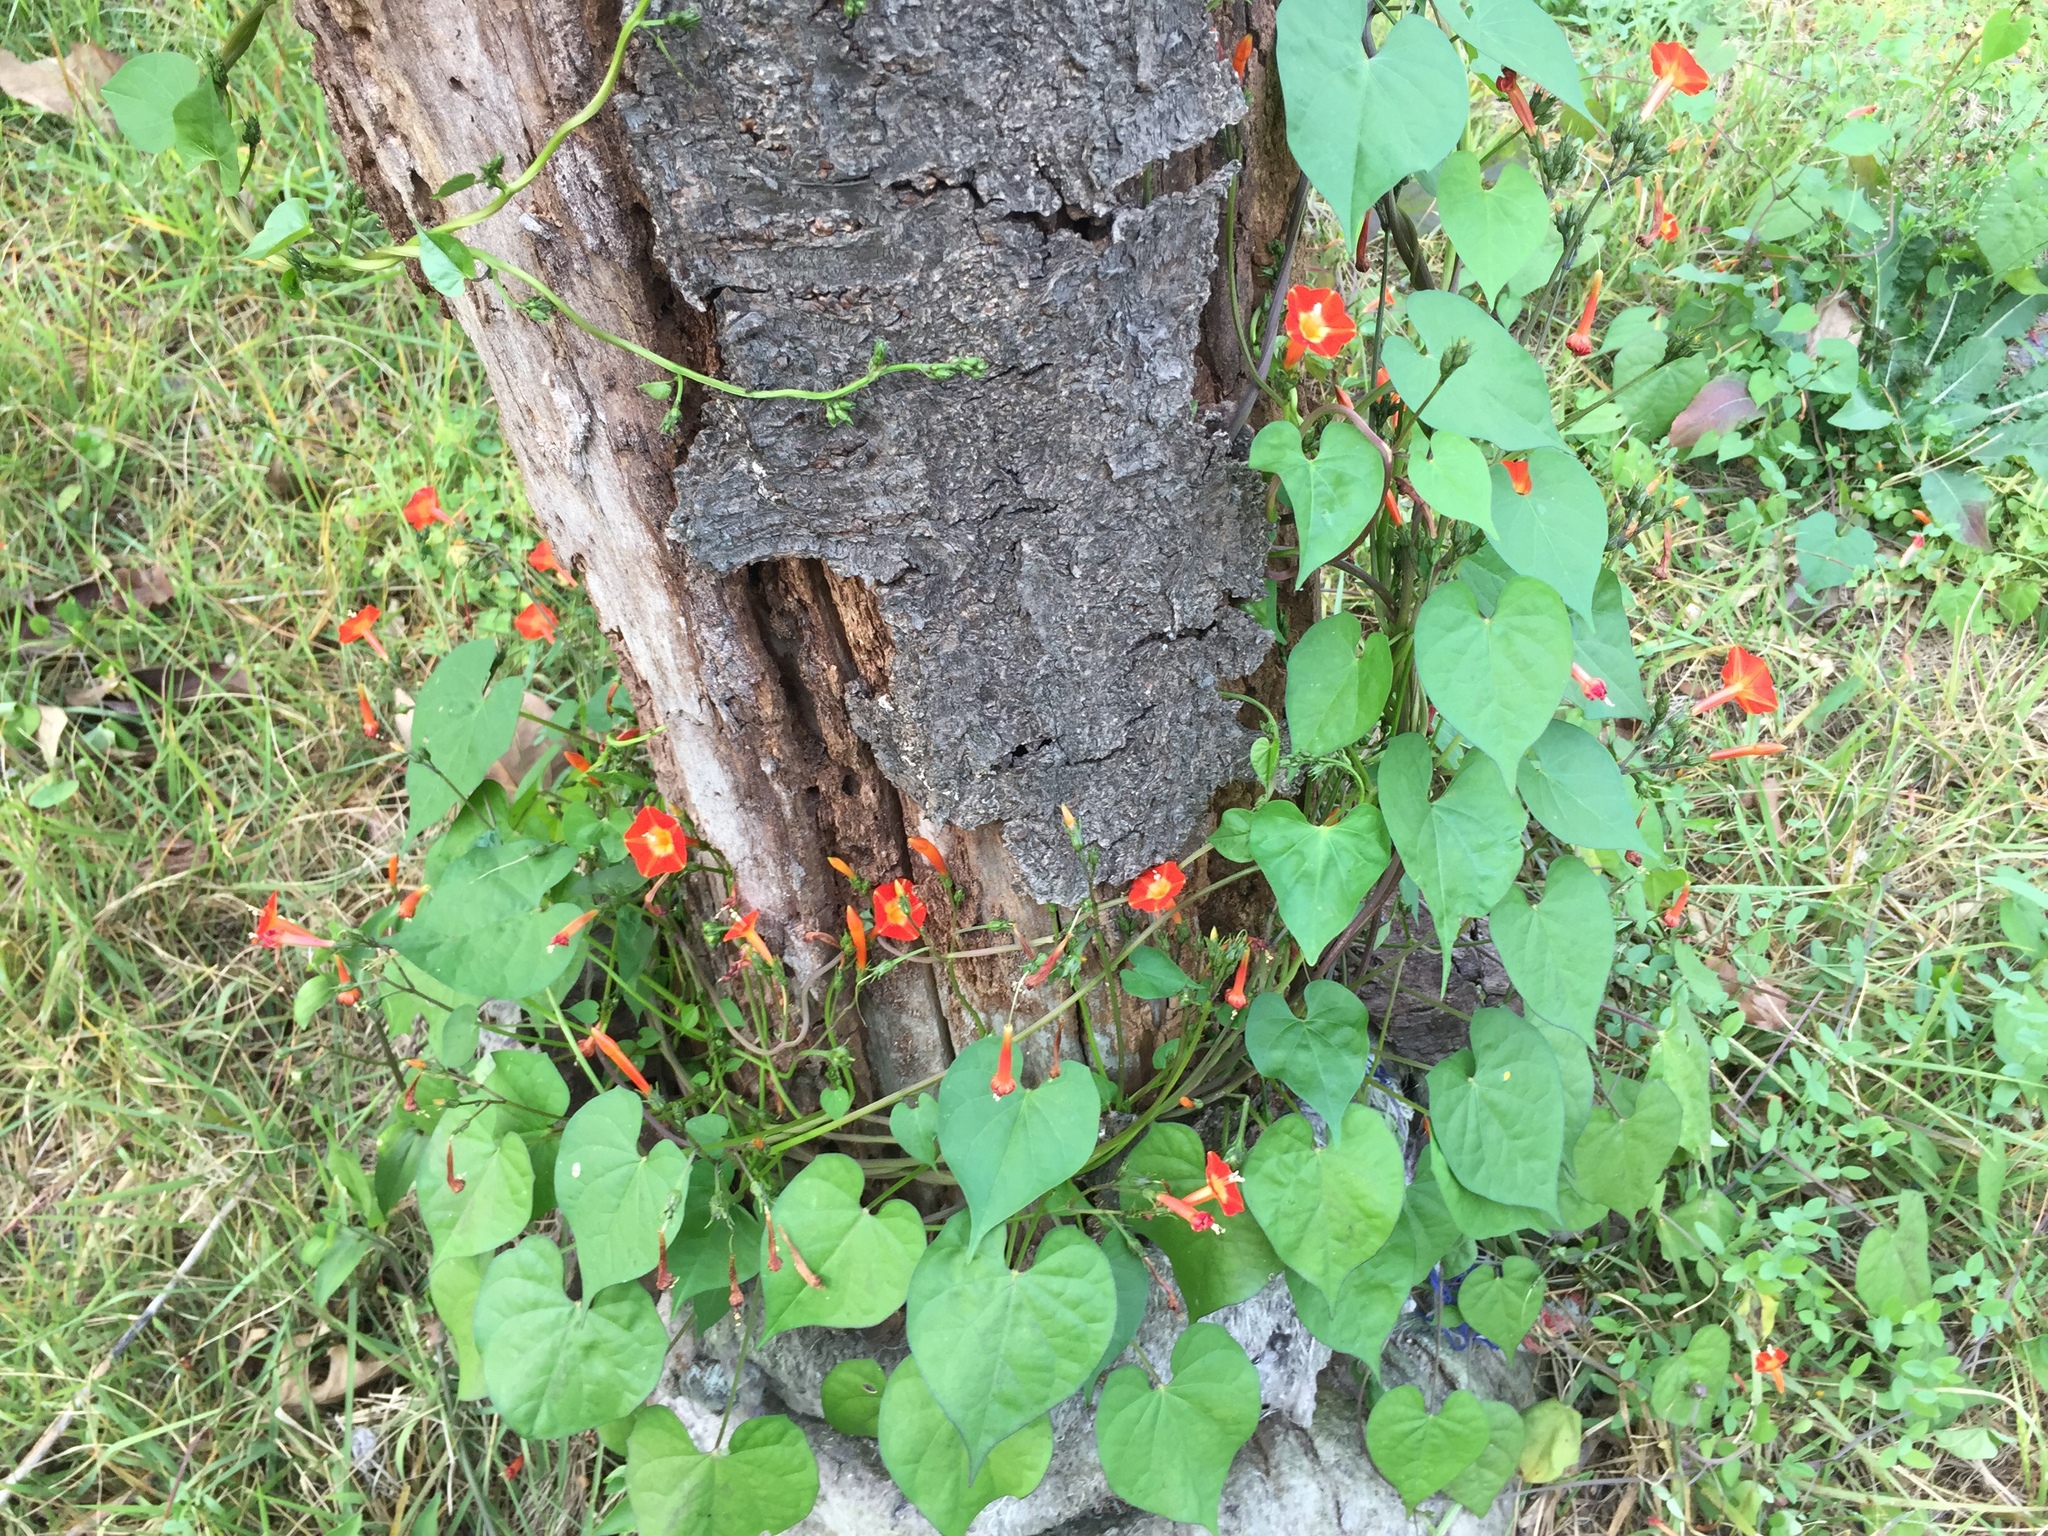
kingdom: Plantae
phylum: Tracheophyta
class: Magnoliopsida
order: Solanales
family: Convolvulaceae
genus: Ipomoea
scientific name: Ipomoea coccinea
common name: Red morning-glory
